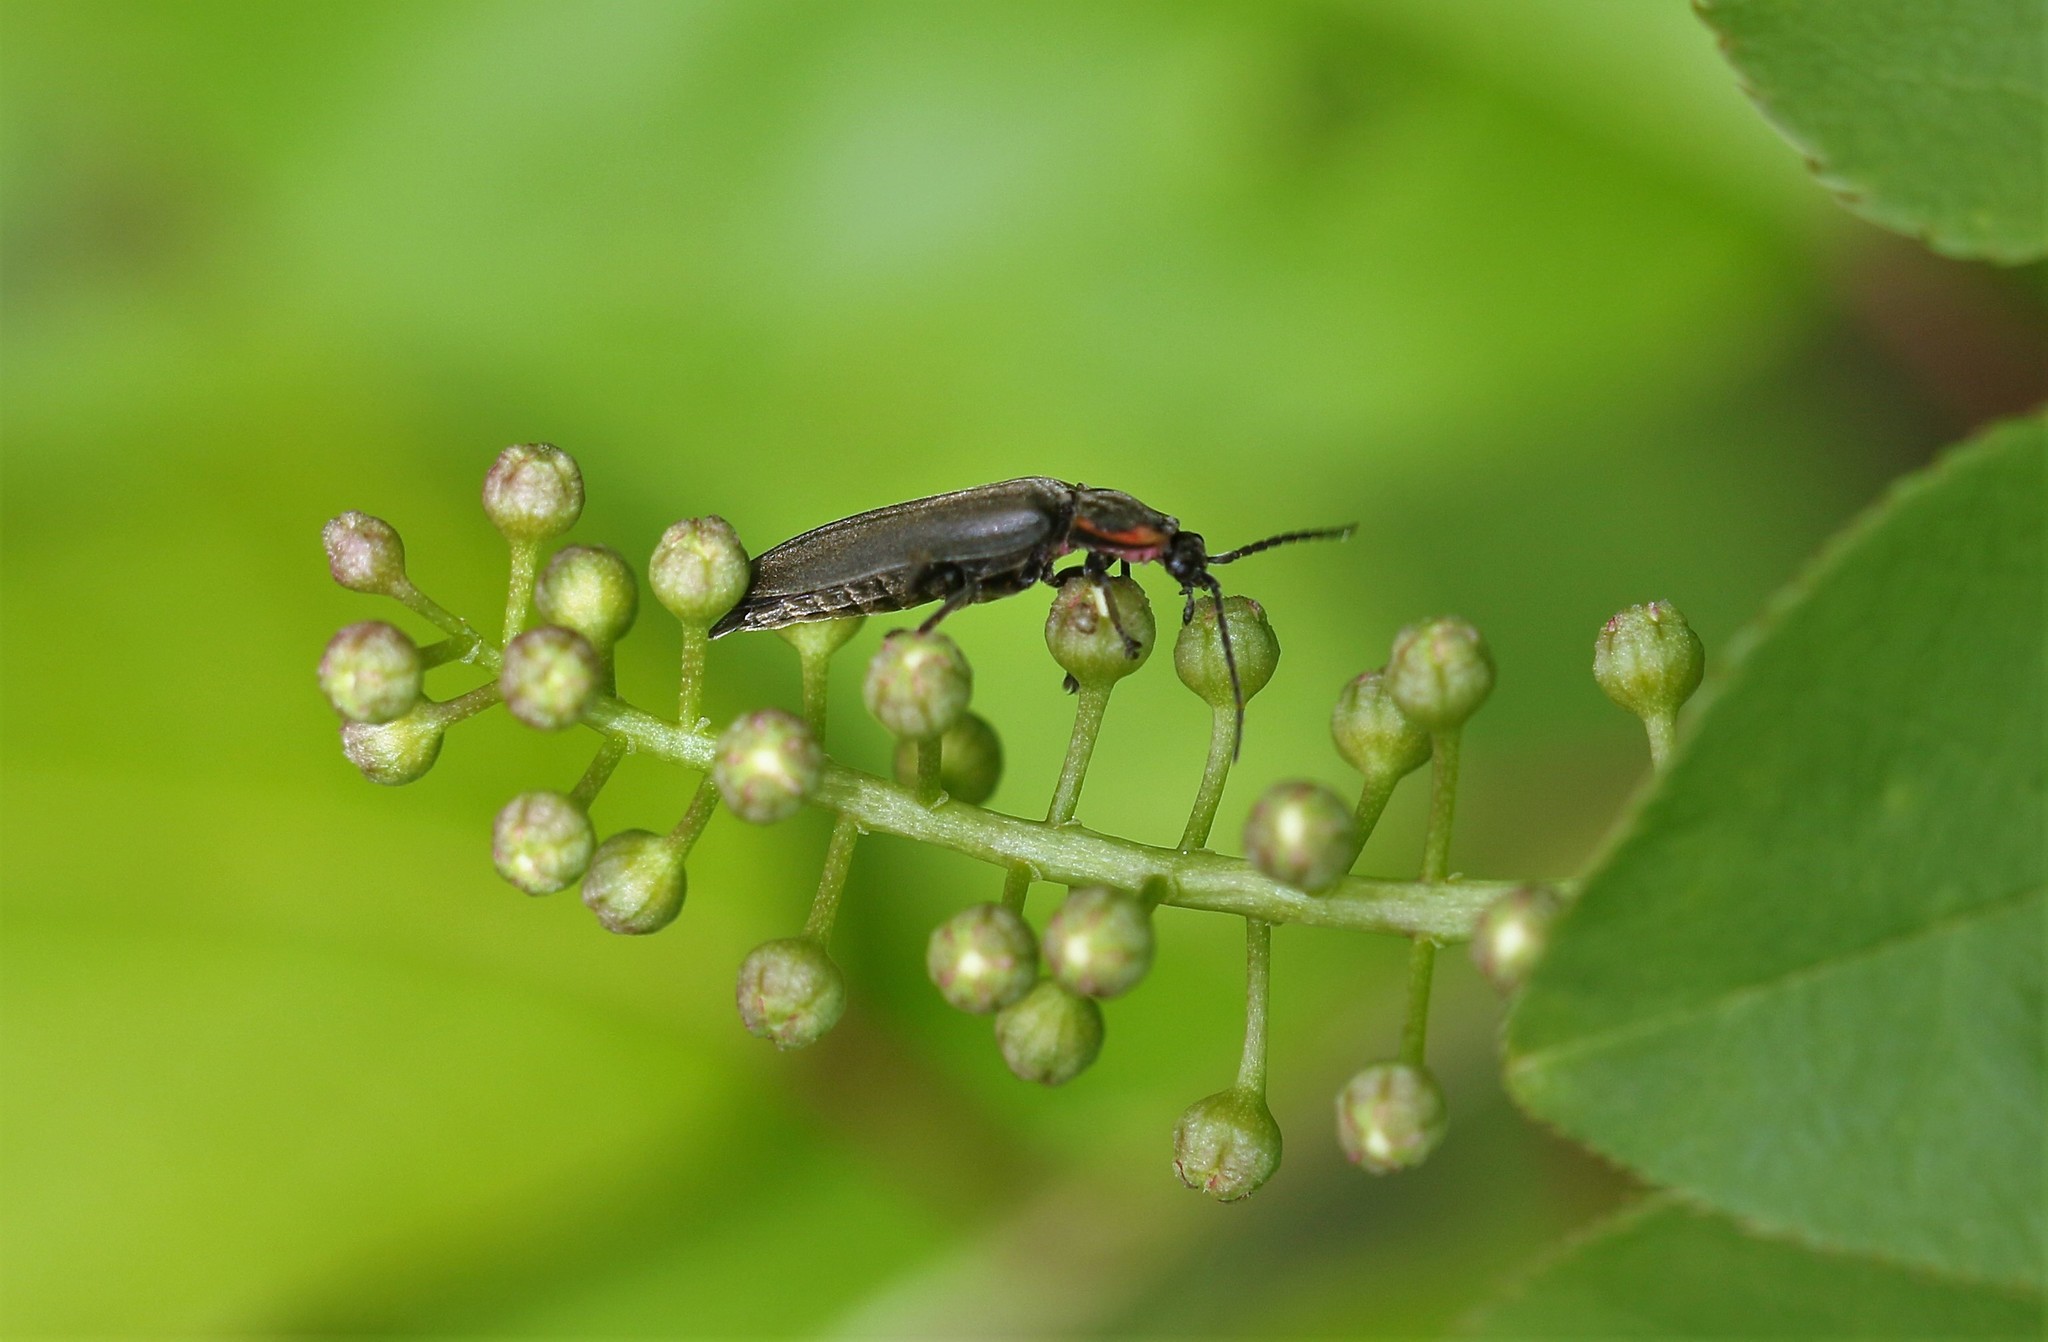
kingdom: Animalia
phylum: Arthropoda
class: Insecta
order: Coleoptera
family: Lampyridae
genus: Photinus
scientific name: Photinus corrusca
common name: Winter firefly
